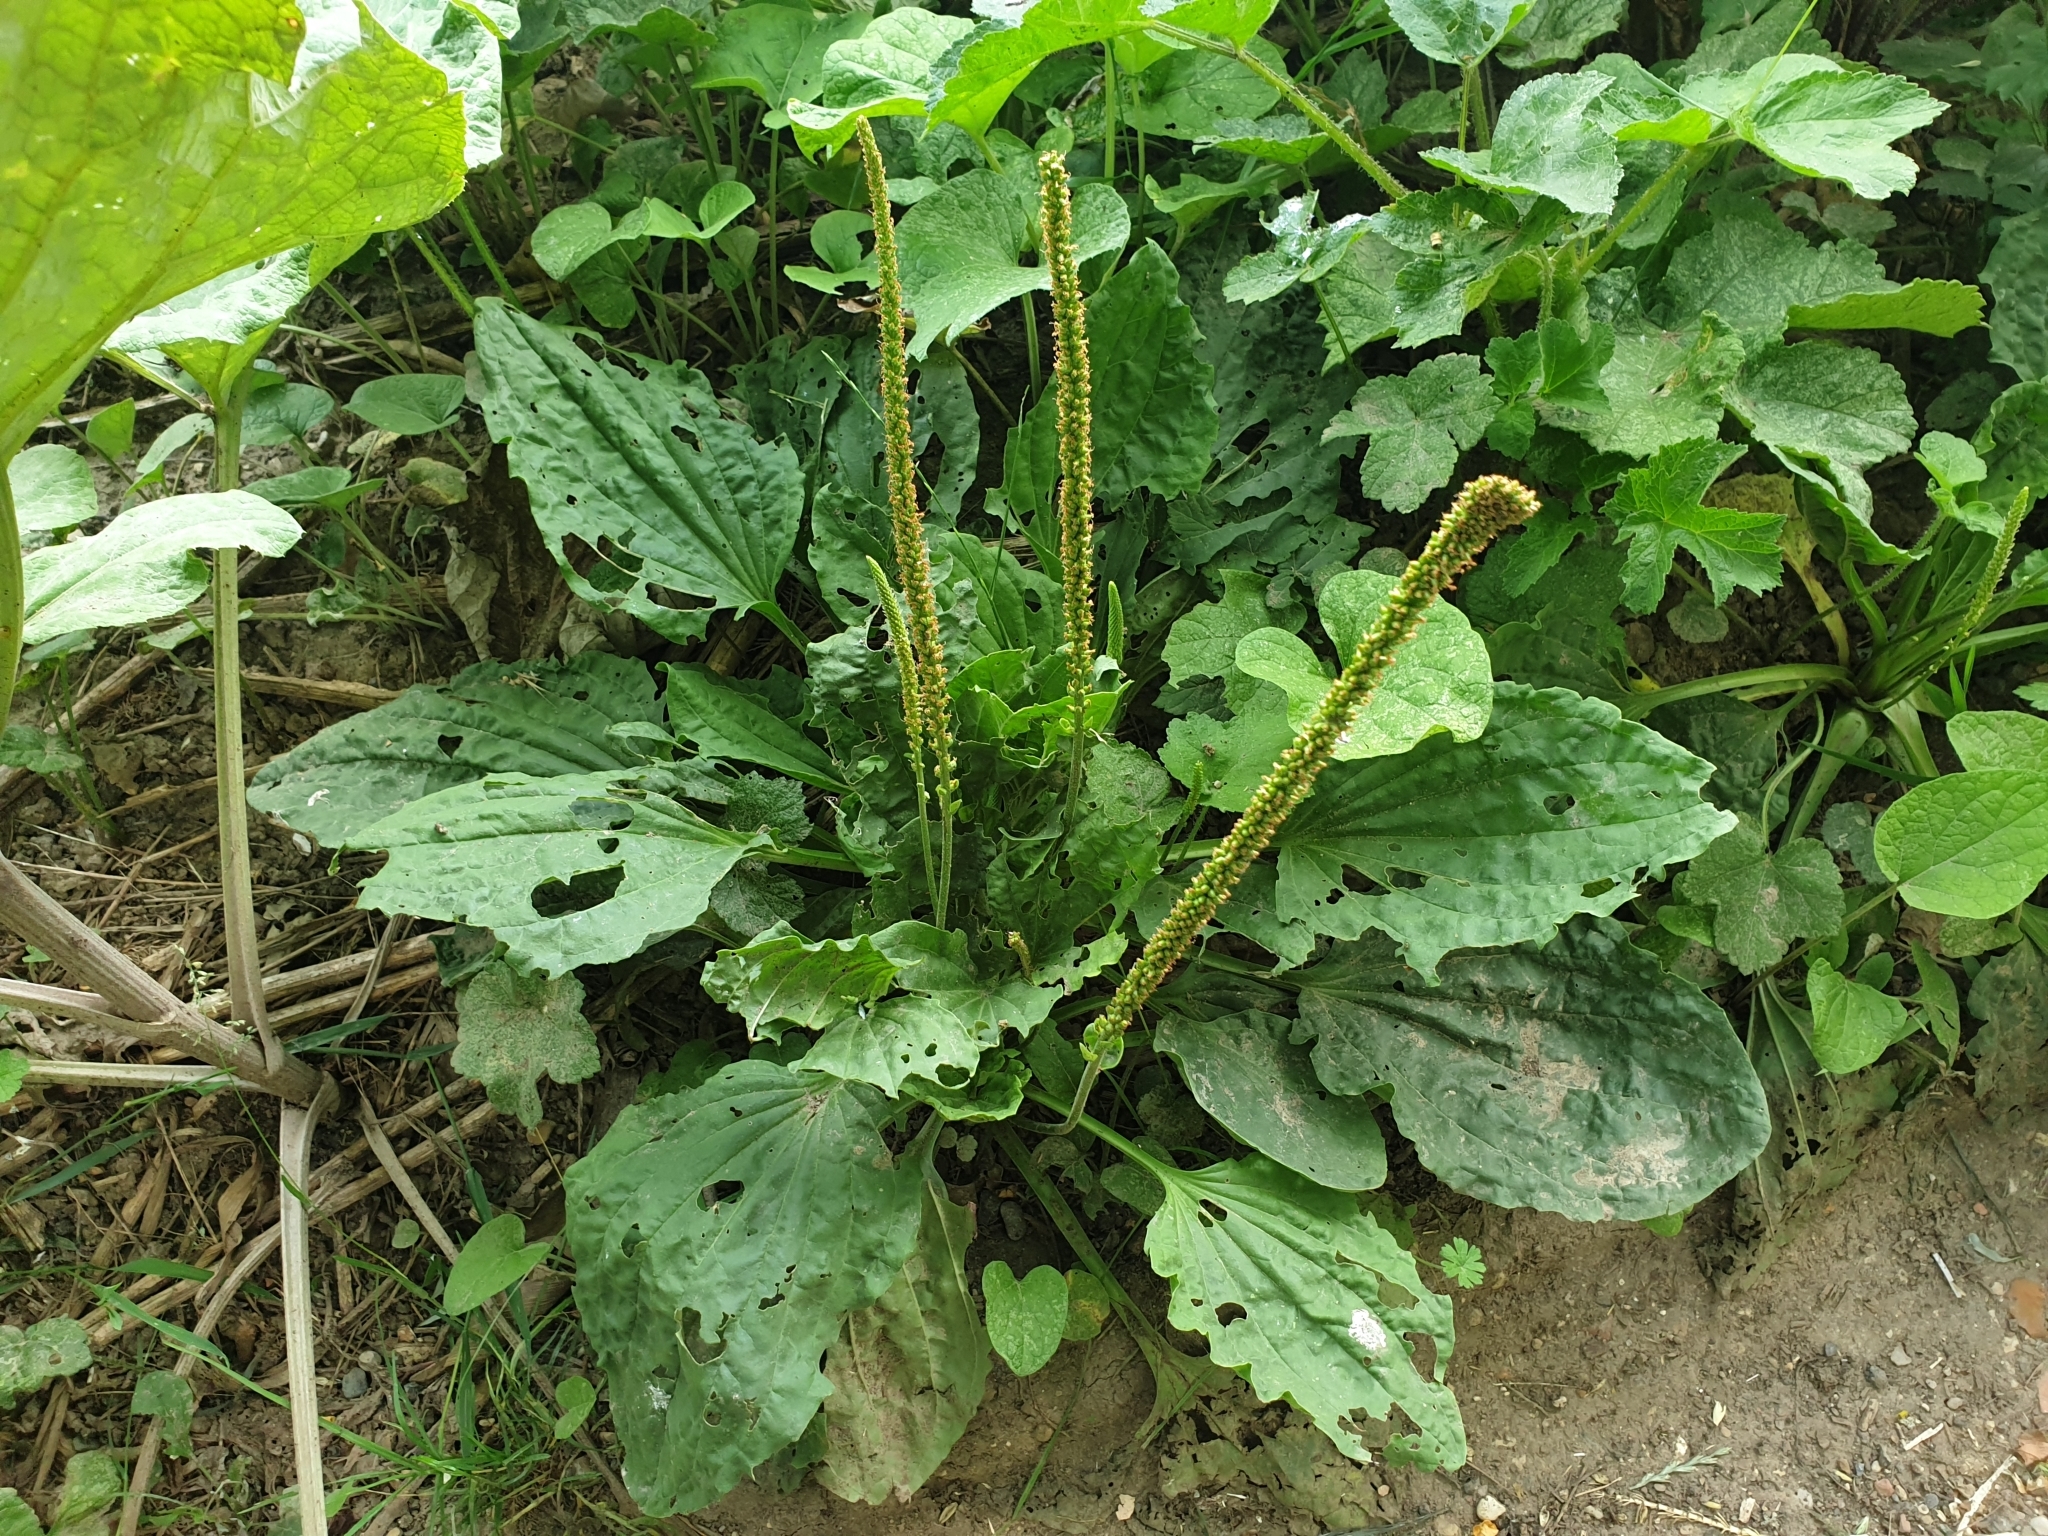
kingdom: Plantae
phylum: Tracheophyta
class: Magnoliopsida
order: Lamiales
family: Plantaginaceae
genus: Plantago
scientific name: Plantago major
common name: Common plantain
